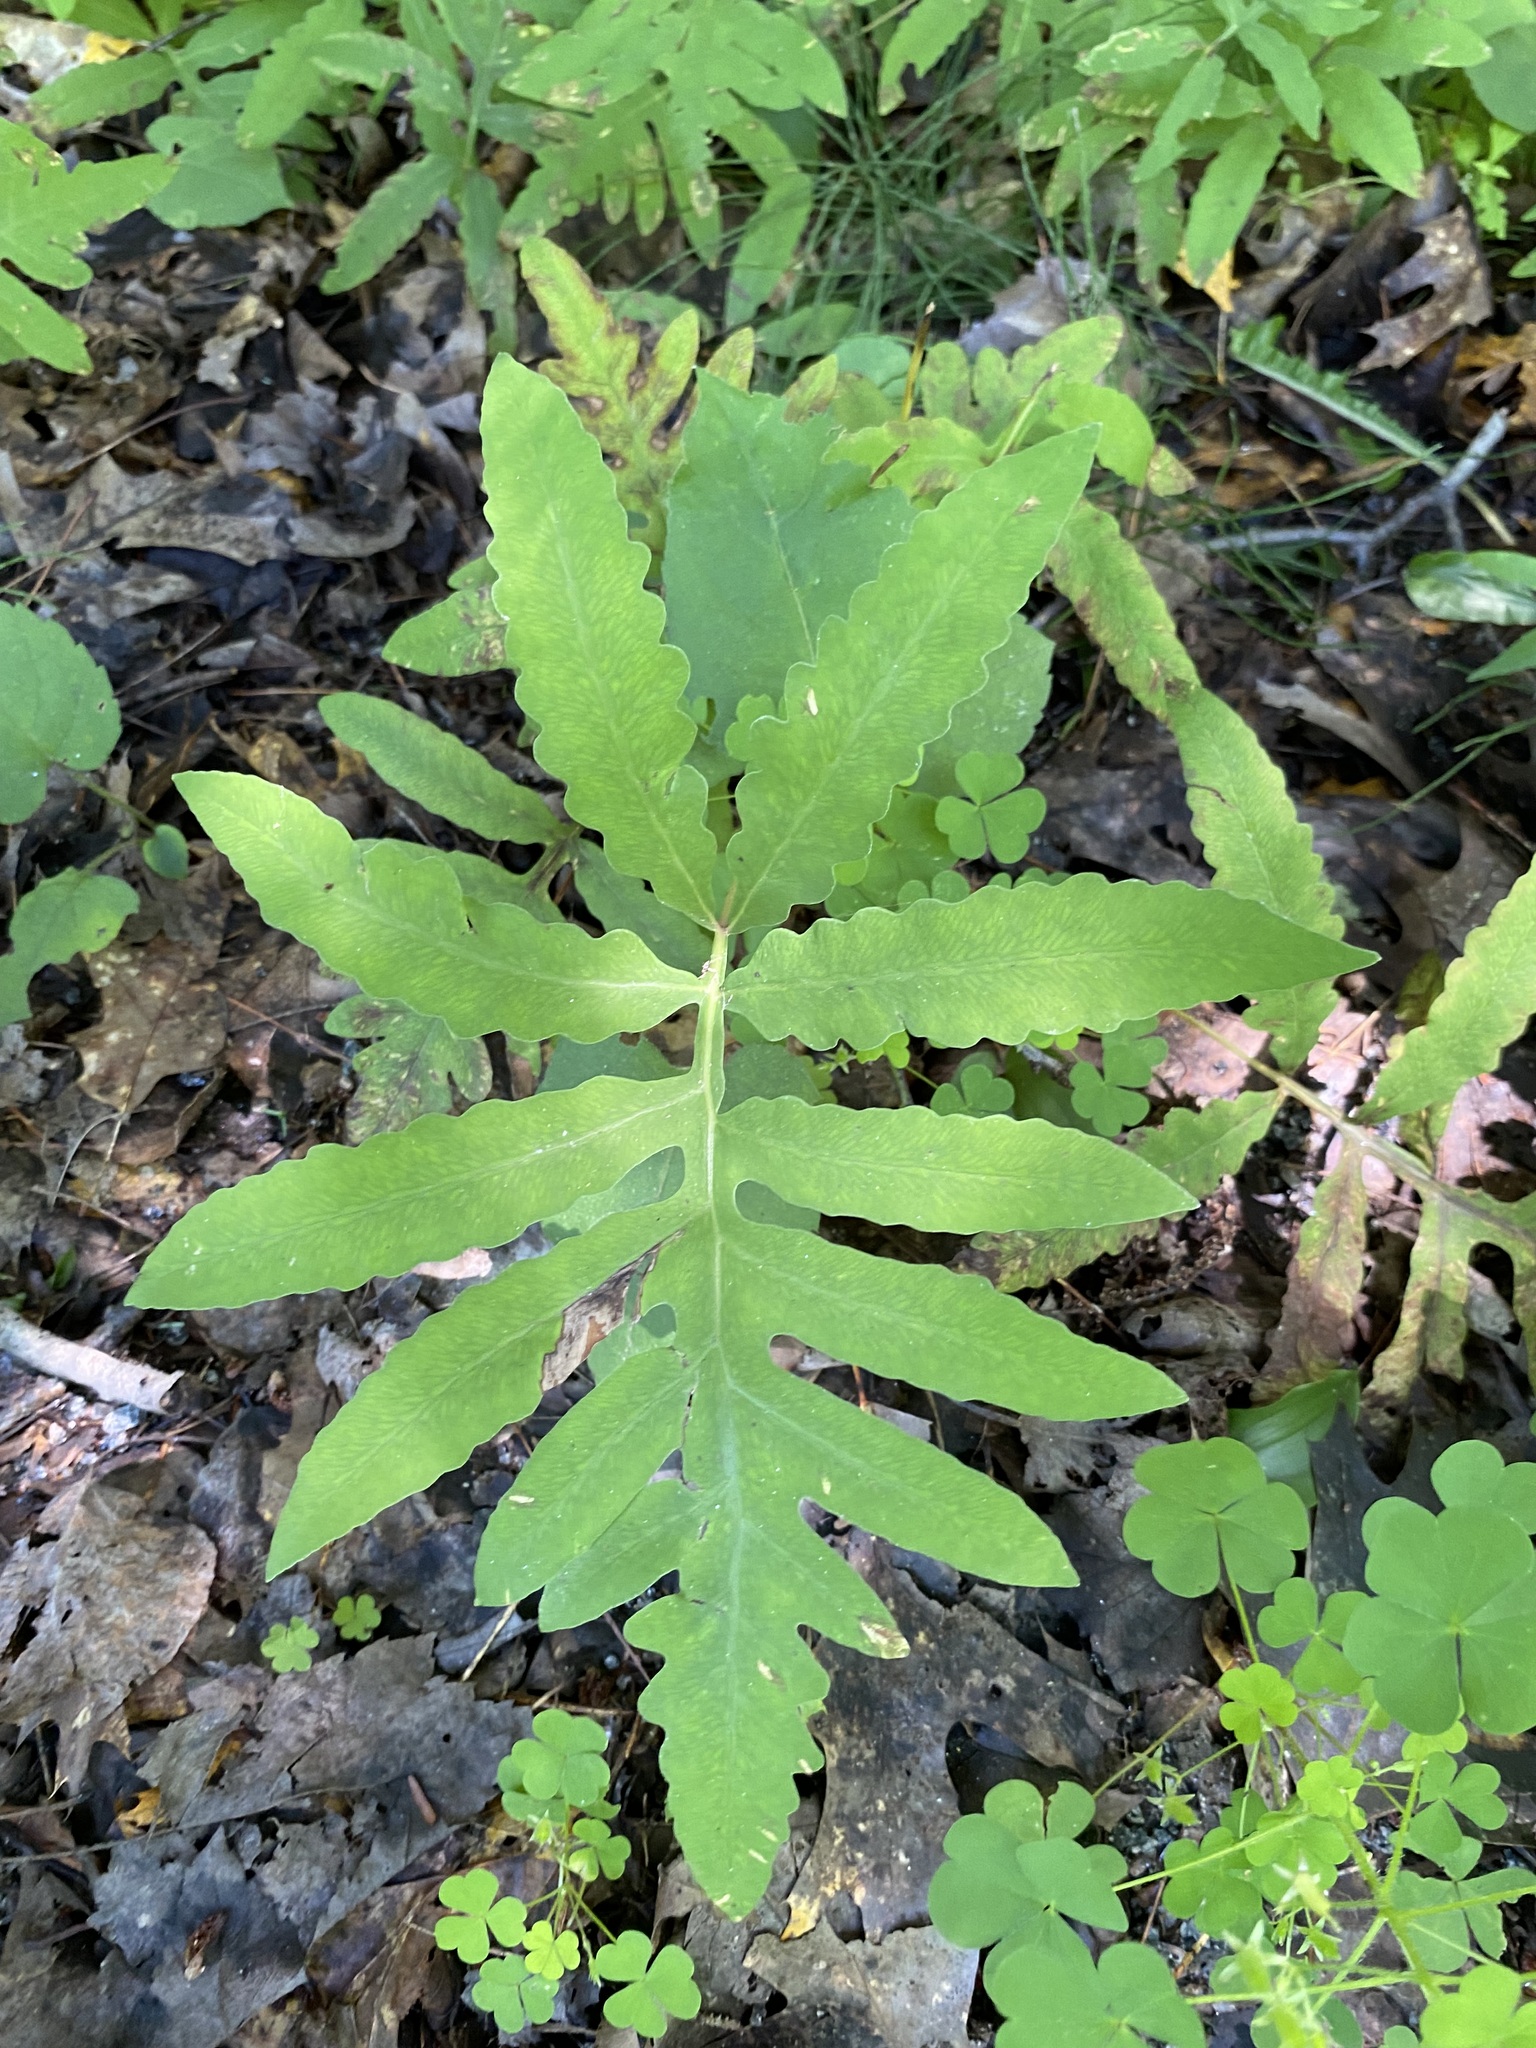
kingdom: Plantae
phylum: Tracheophyta
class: Polypodiopsida
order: Polypodiales
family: Onocleaceae
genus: Onoclea
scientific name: Onoclea sensibilis
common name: Sensitive fern
